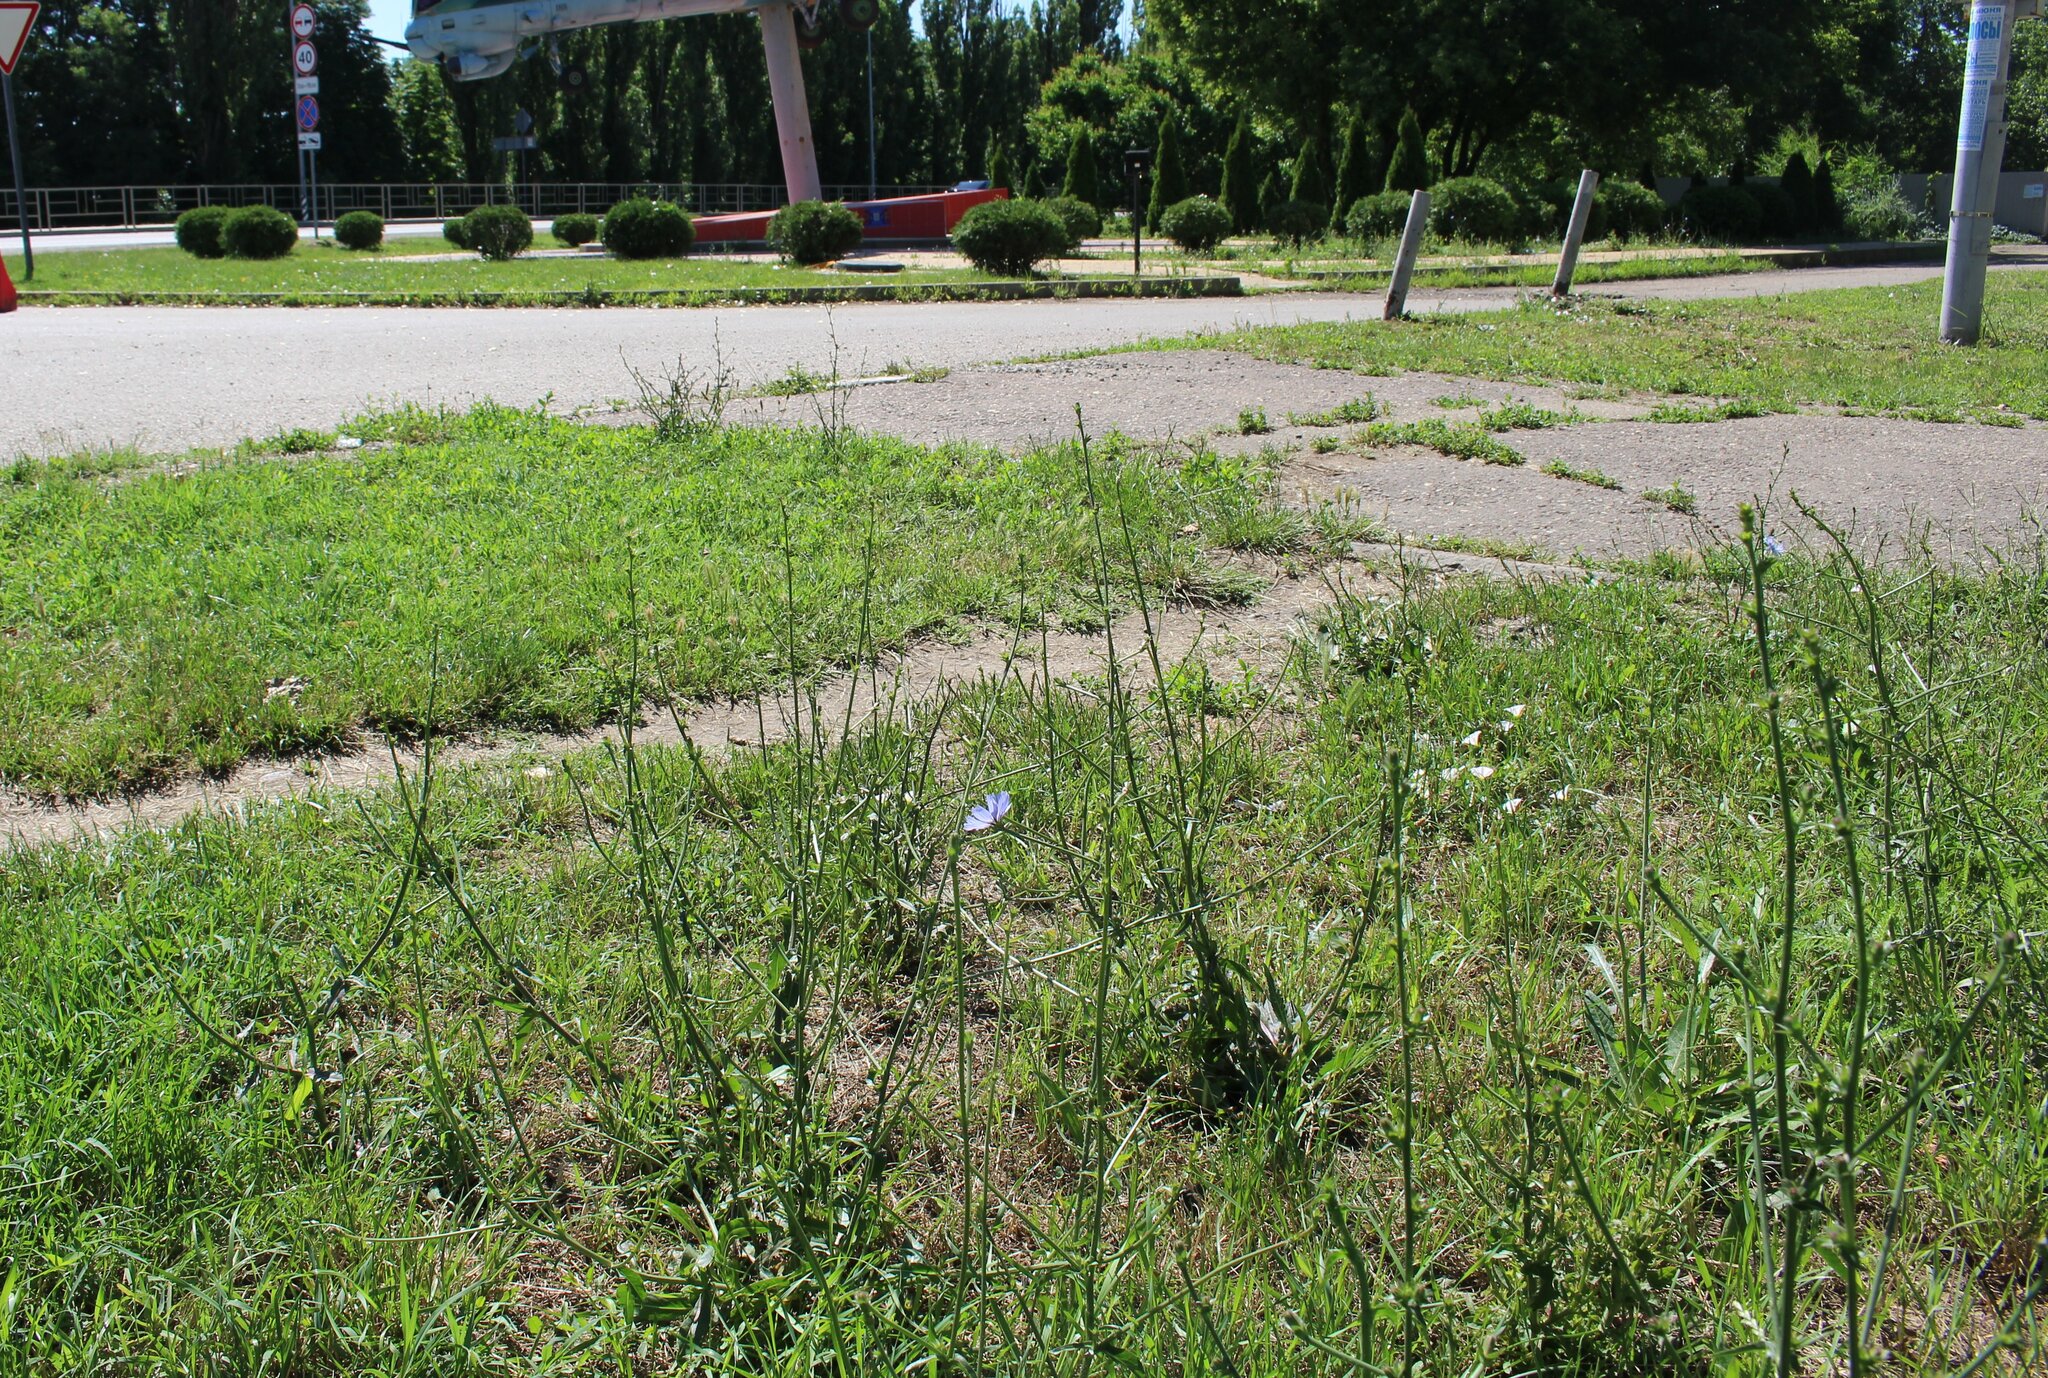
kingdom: Plantae
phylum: Tracheophyta
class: Magnoliopsida
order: Asterales
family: Asteraceae
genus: Cichorium
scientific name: Cichorium intybus
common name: Chicory
